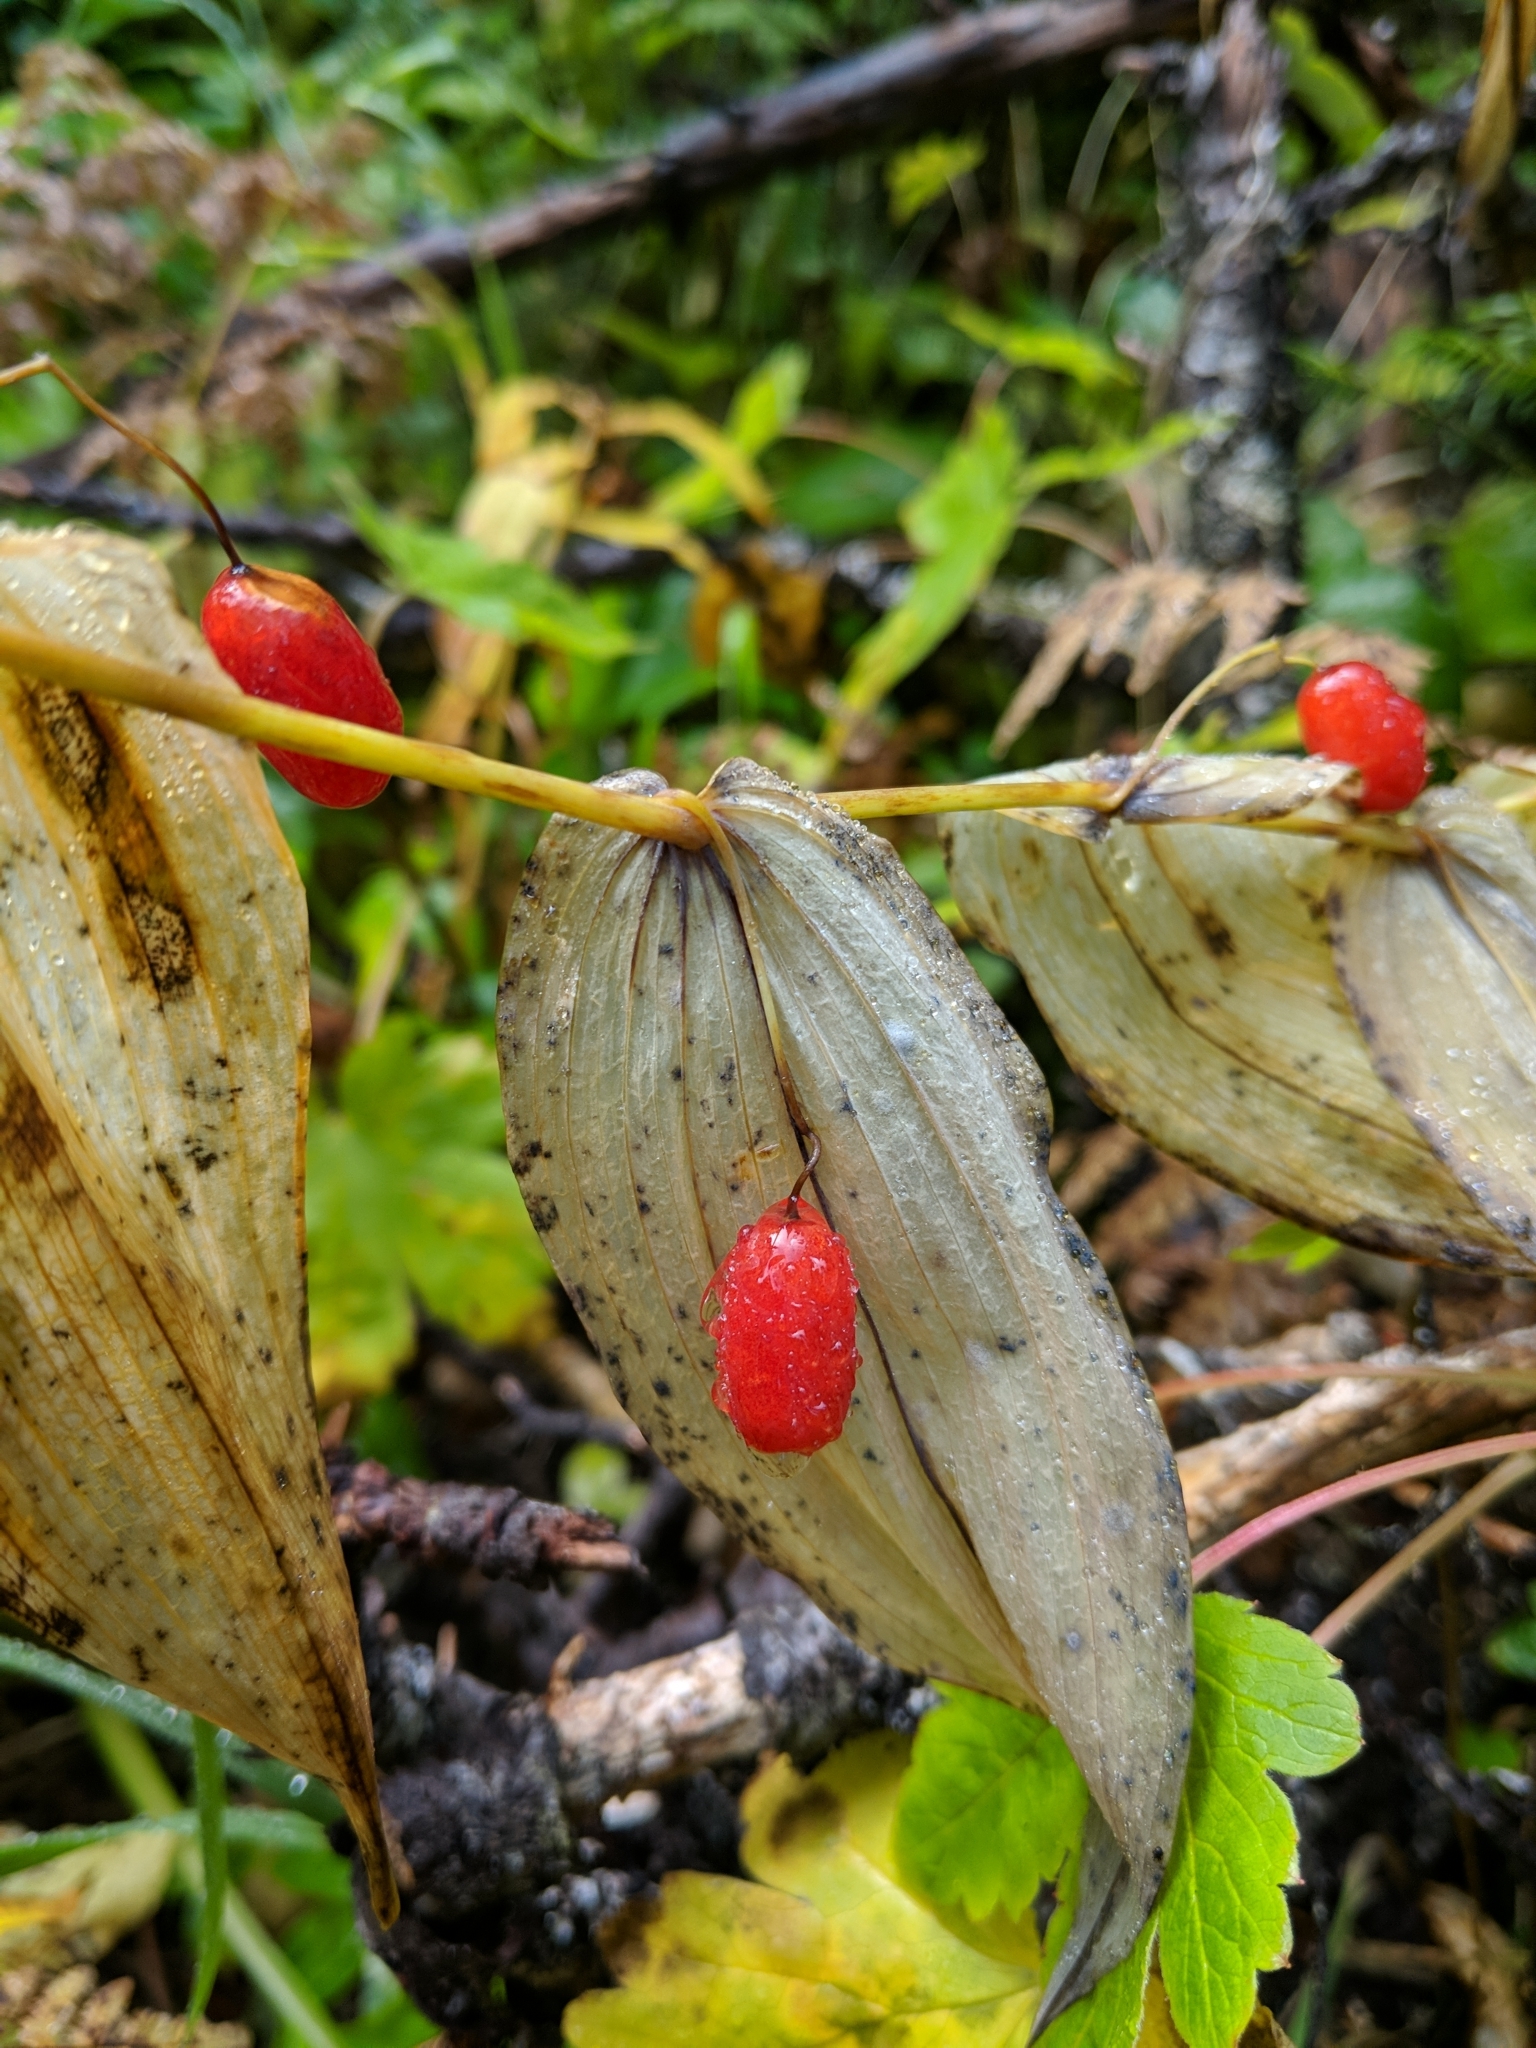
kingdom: Plantae
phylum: Tracheophyta
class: Liliopsida
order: Liliales
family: Liliaceae
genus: Streptopus
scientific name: Streptopus amplexifolius
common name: Clasp twisted stalk
